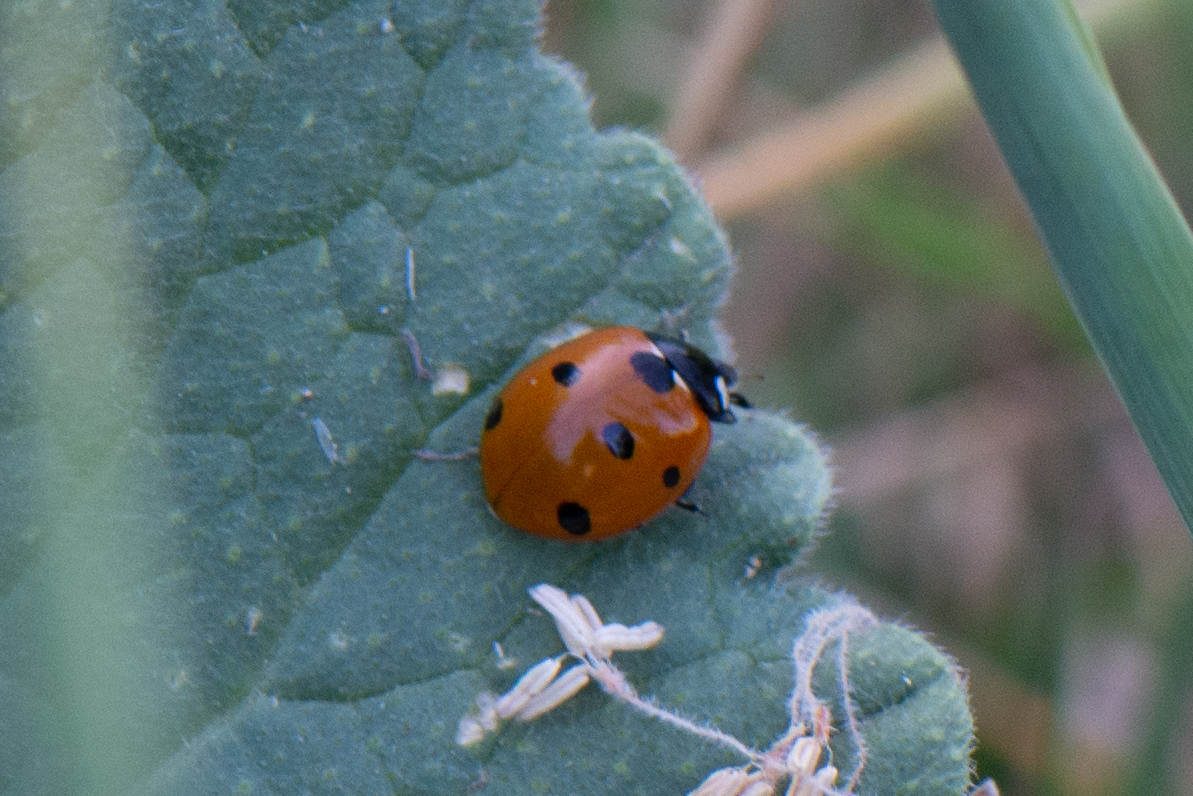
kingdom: Animalia
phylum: Arthropoda
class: Insecta
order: Coleoptera
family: Coccinellidae
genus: Coccinella
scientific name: Coccinella septempunctata
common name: Sevenspotted lady beetle
